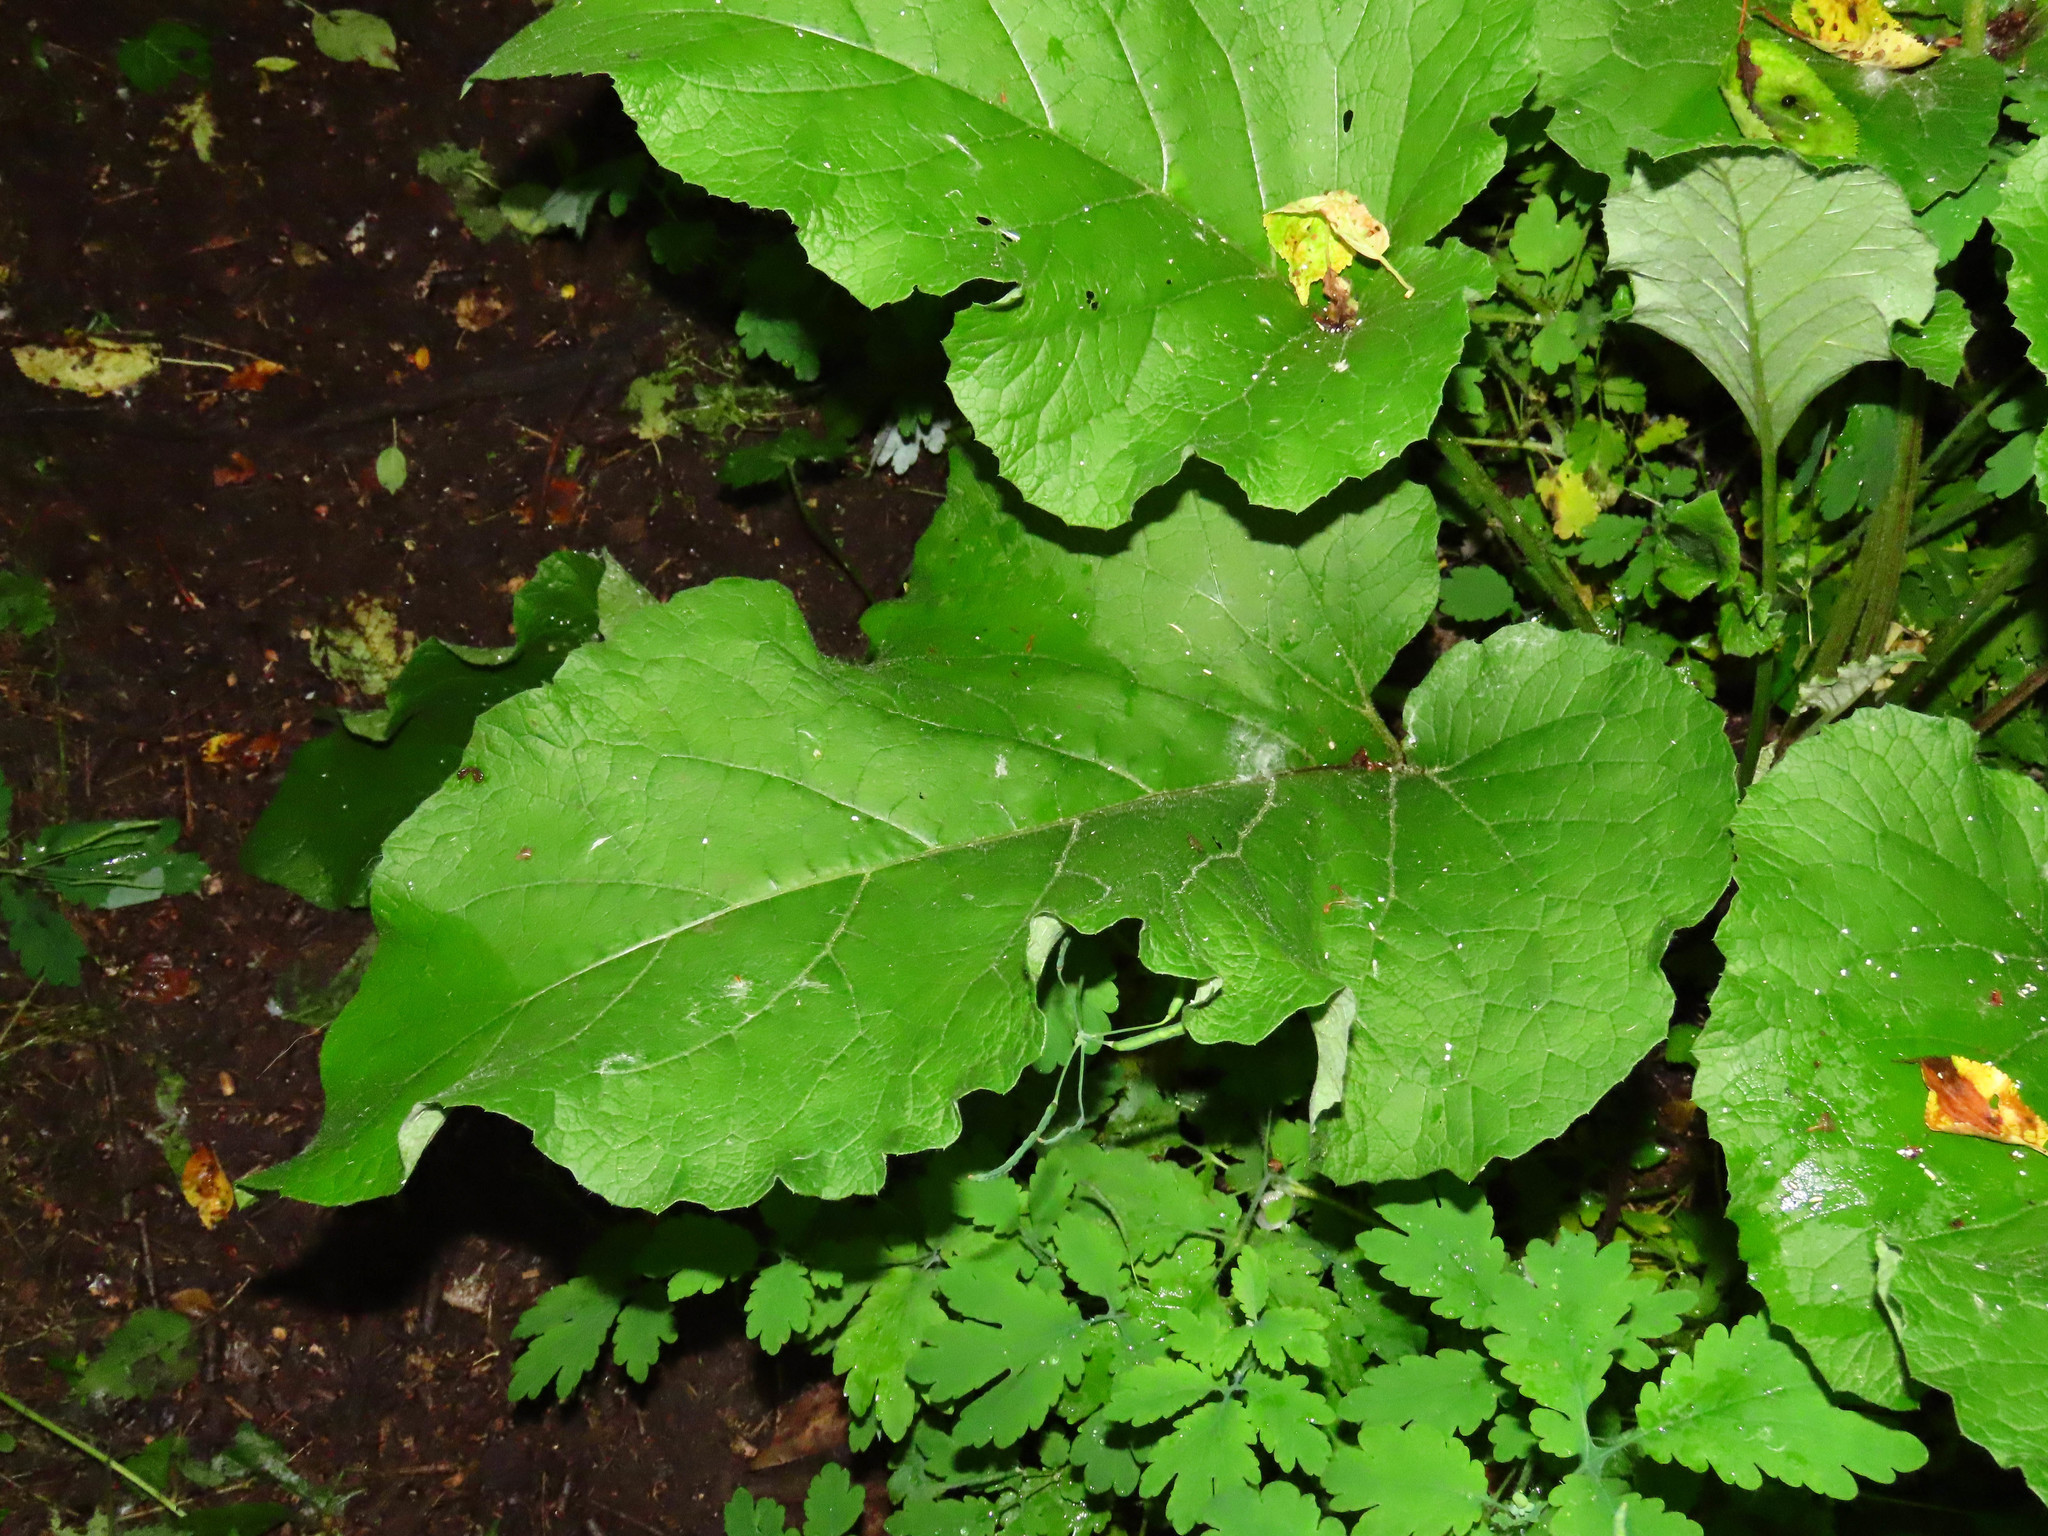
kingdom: Plantae
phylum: Tracheophyta
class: Magnoliopsida
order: Asterales
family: Asteraceae
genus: Petasites
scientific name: Petasites hybridus
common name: Butterbur
